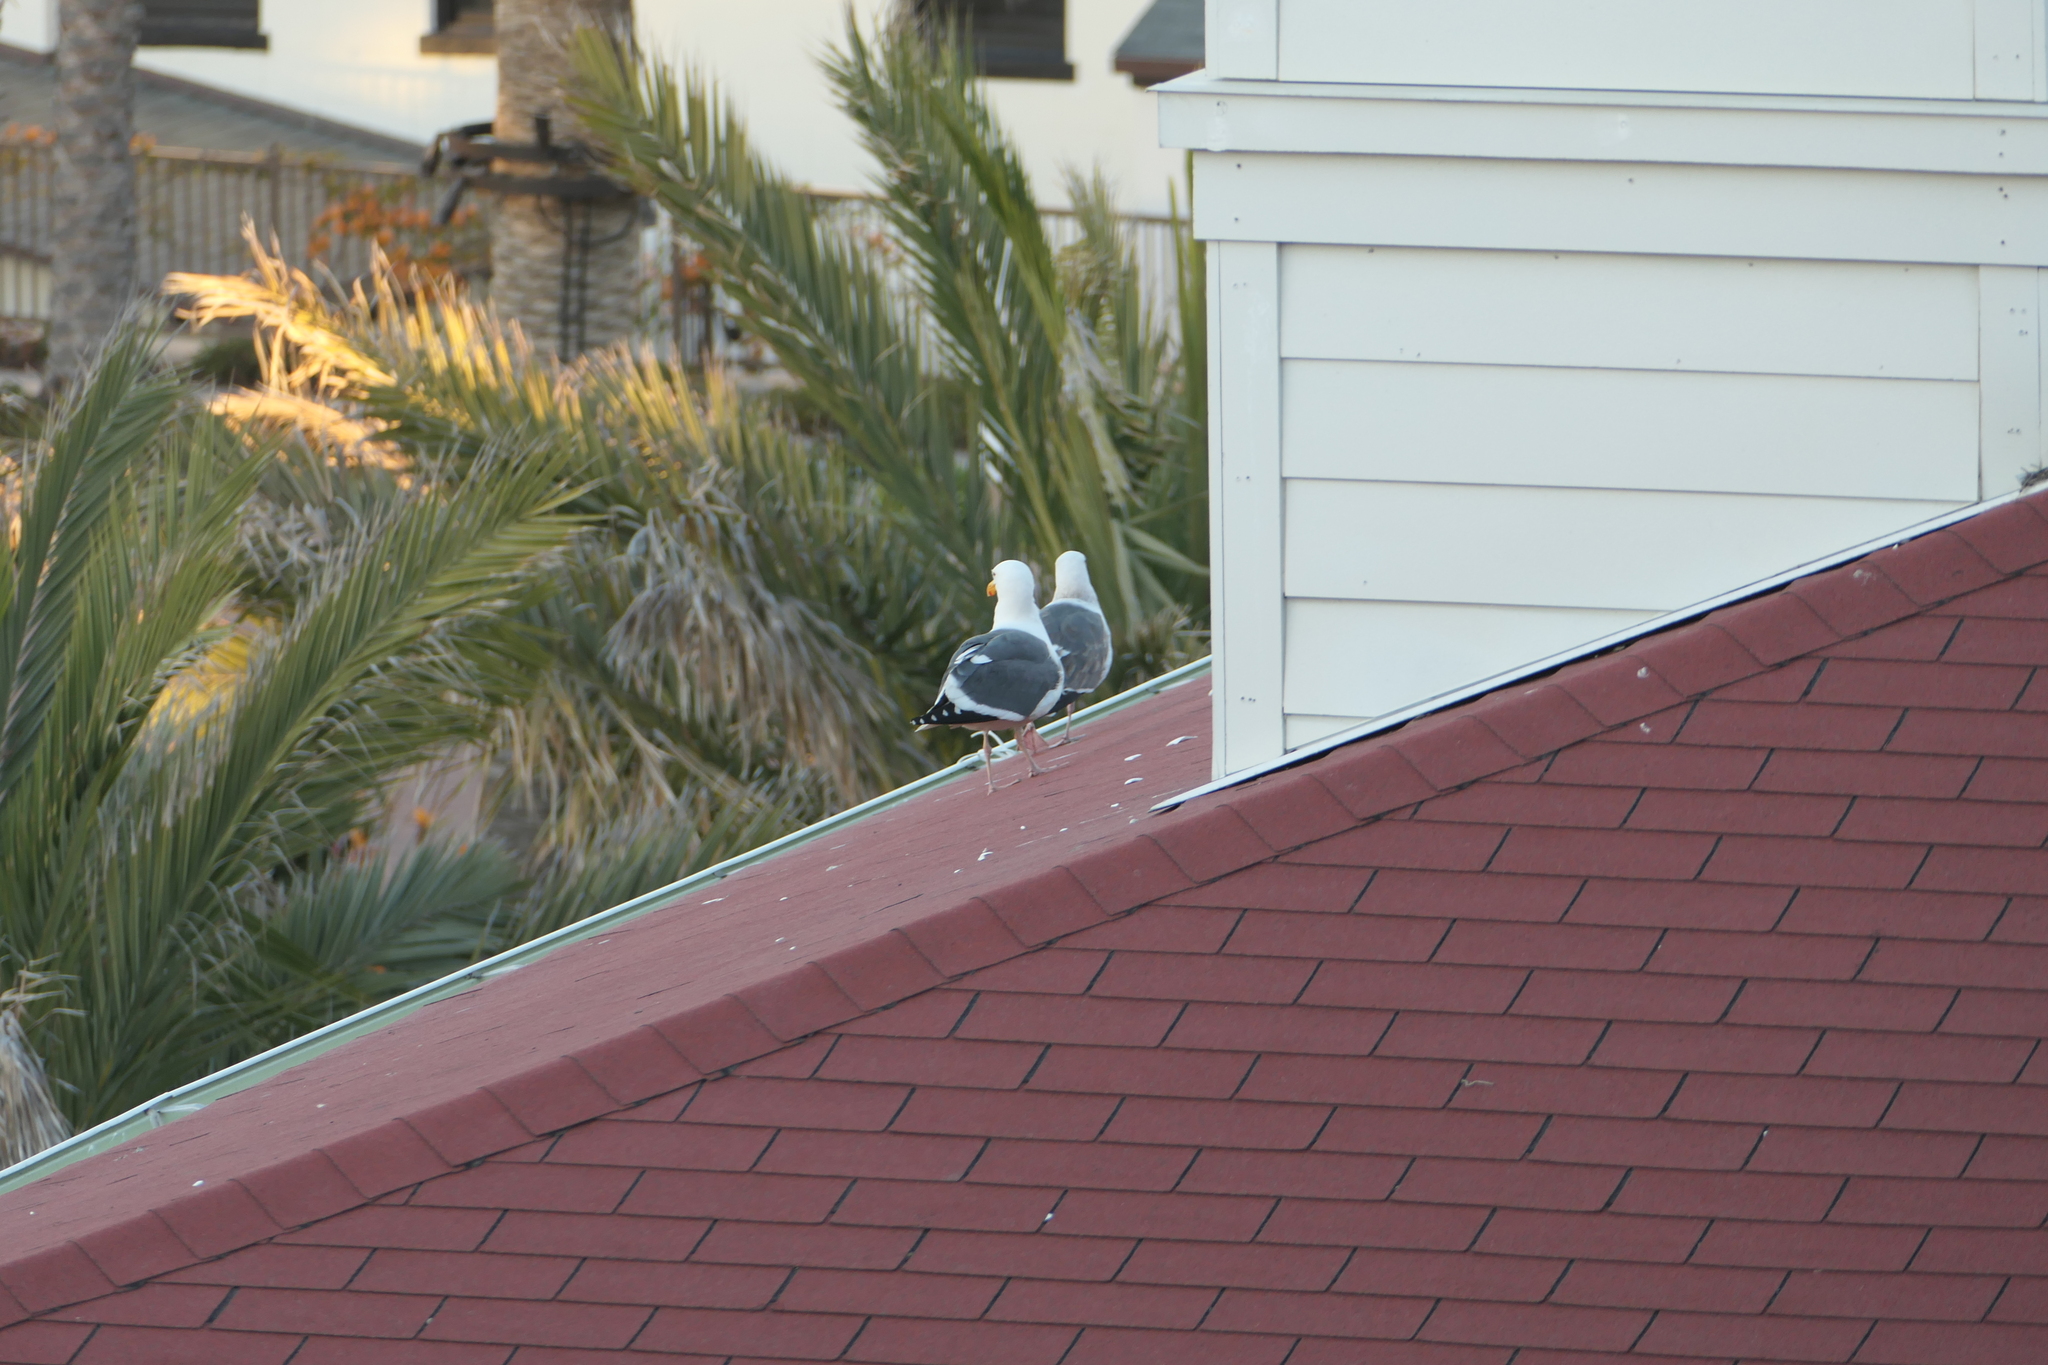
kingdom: Animalia
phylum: Chordata
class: Aves
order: Charadriiformes
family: Laridae
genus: Larus
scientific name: Larus occidentalis
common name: Western gull
